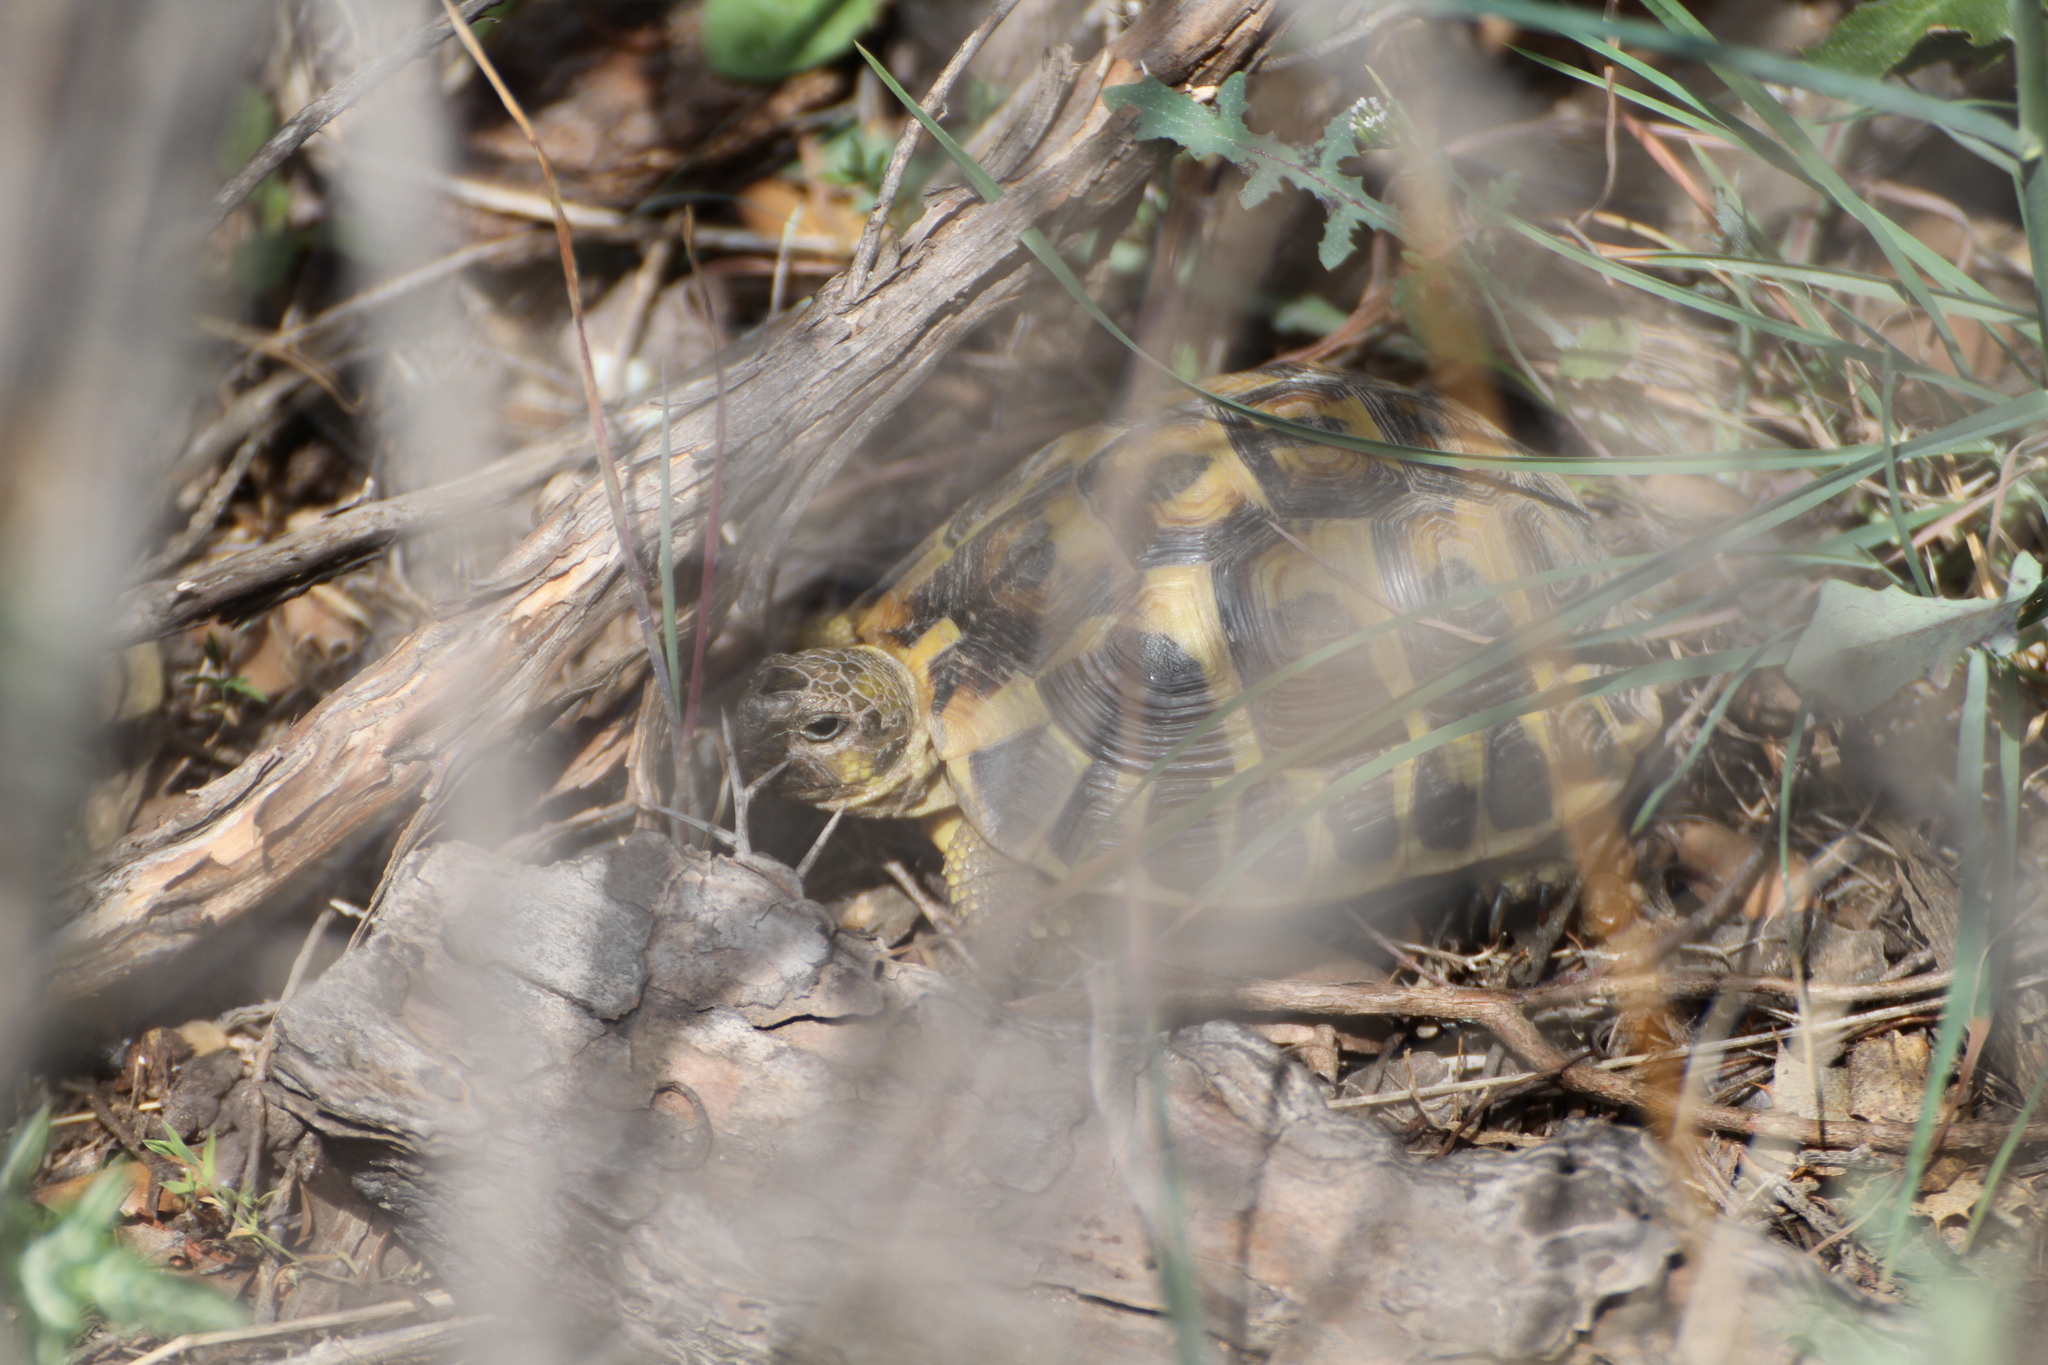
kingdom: Animalia
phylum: Chordata
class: Testudines
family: Testudinidae
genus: Testudo
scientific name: Testudo hermanni
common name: Hermann's tortoise
